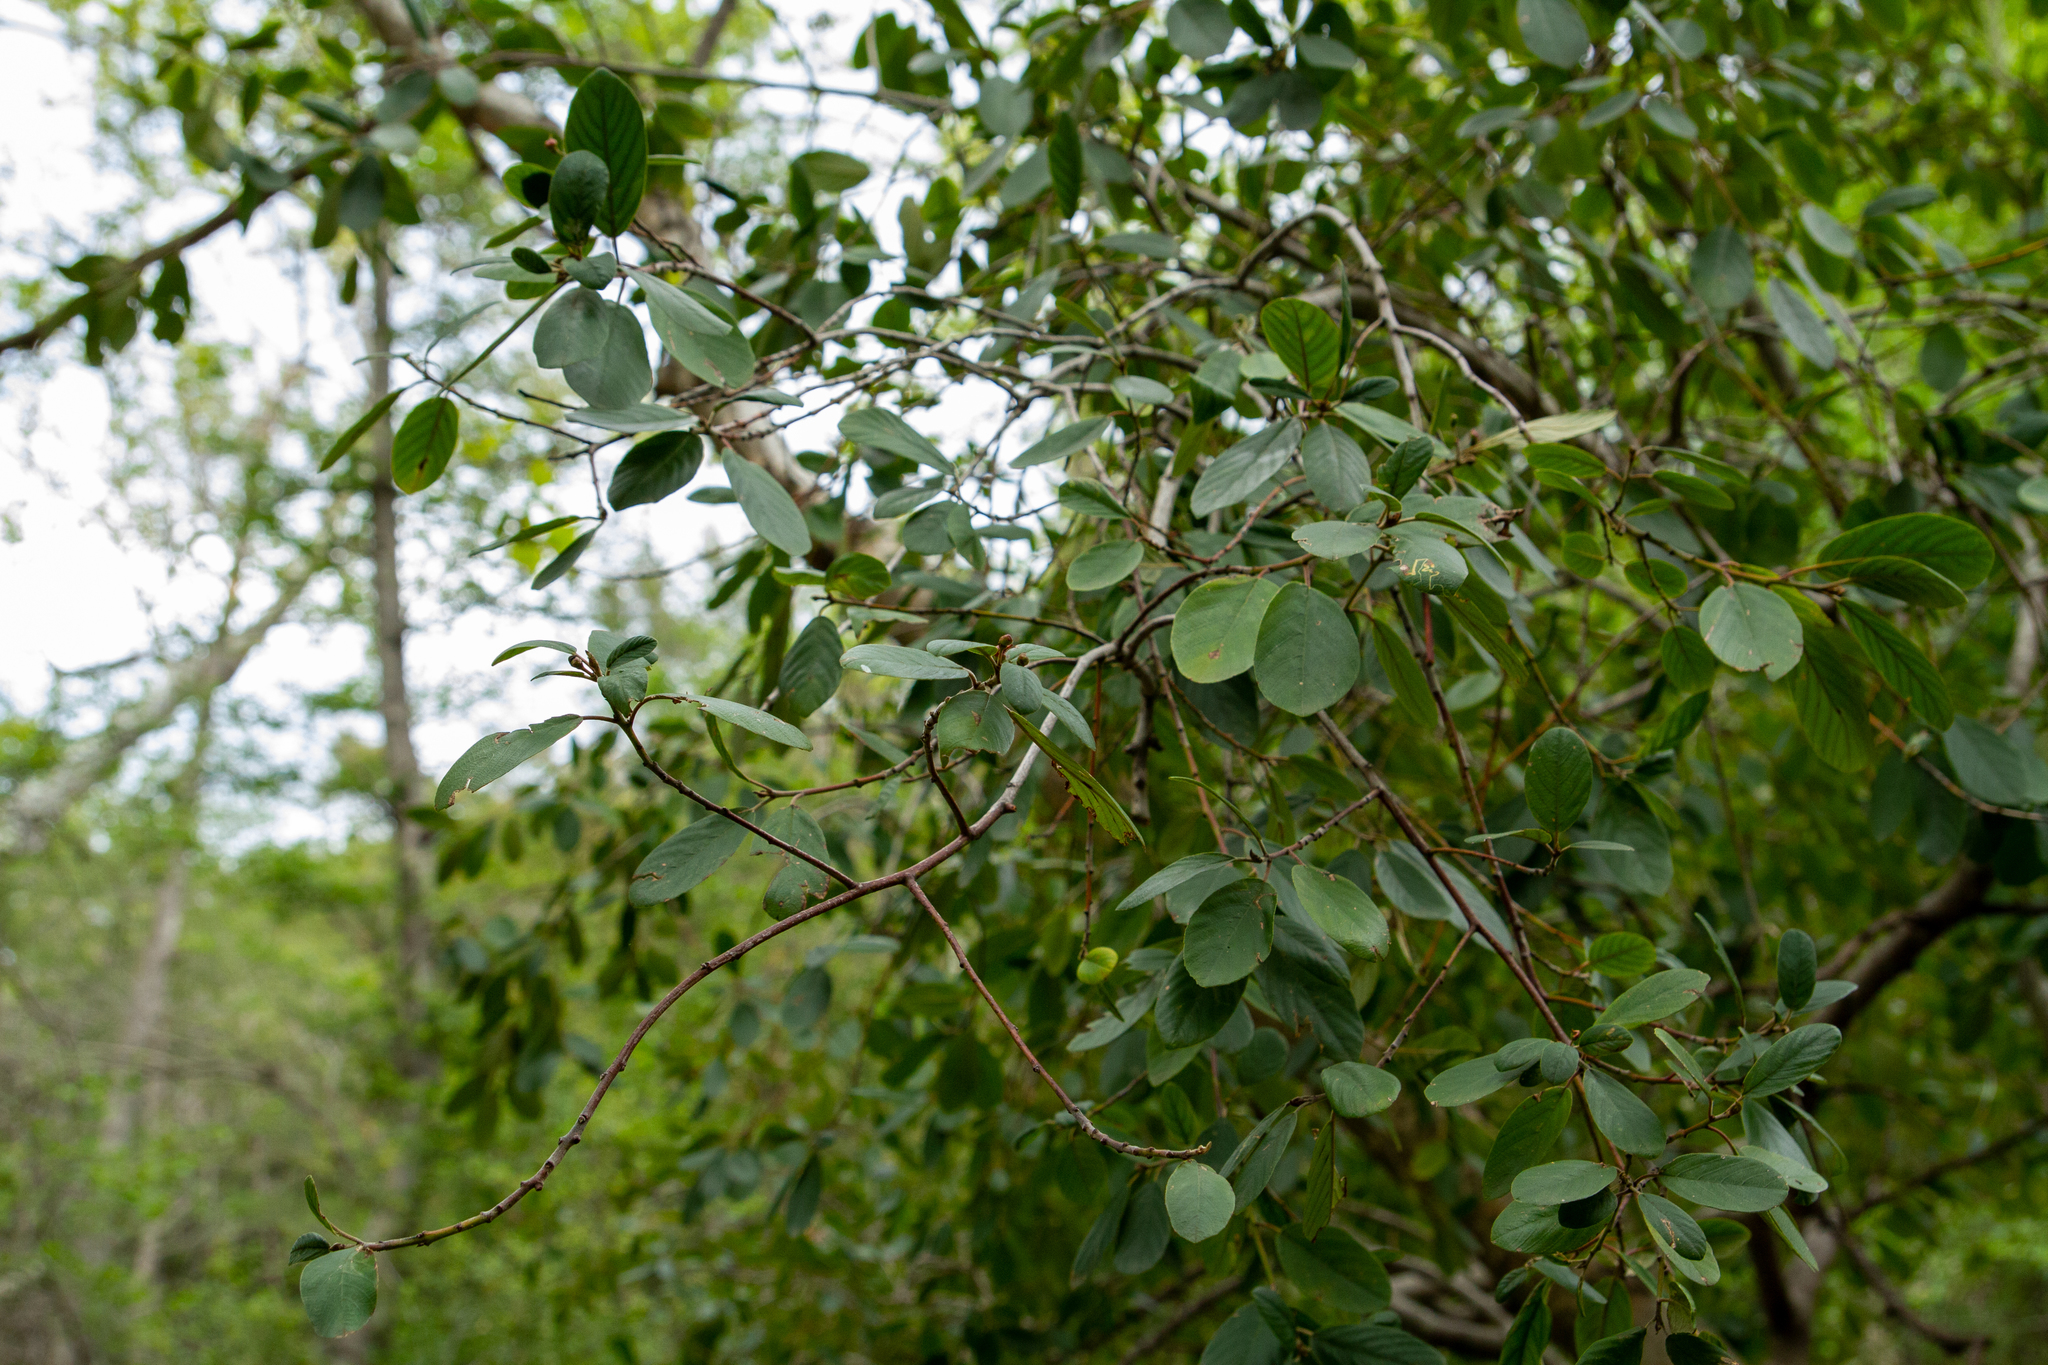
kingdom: Plantae
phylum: Tracheophyta
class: Magnoliopsida
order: Rosales
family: Rhamnaceae
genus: Frangula
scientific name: Frangula californica
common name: California buckthorn
